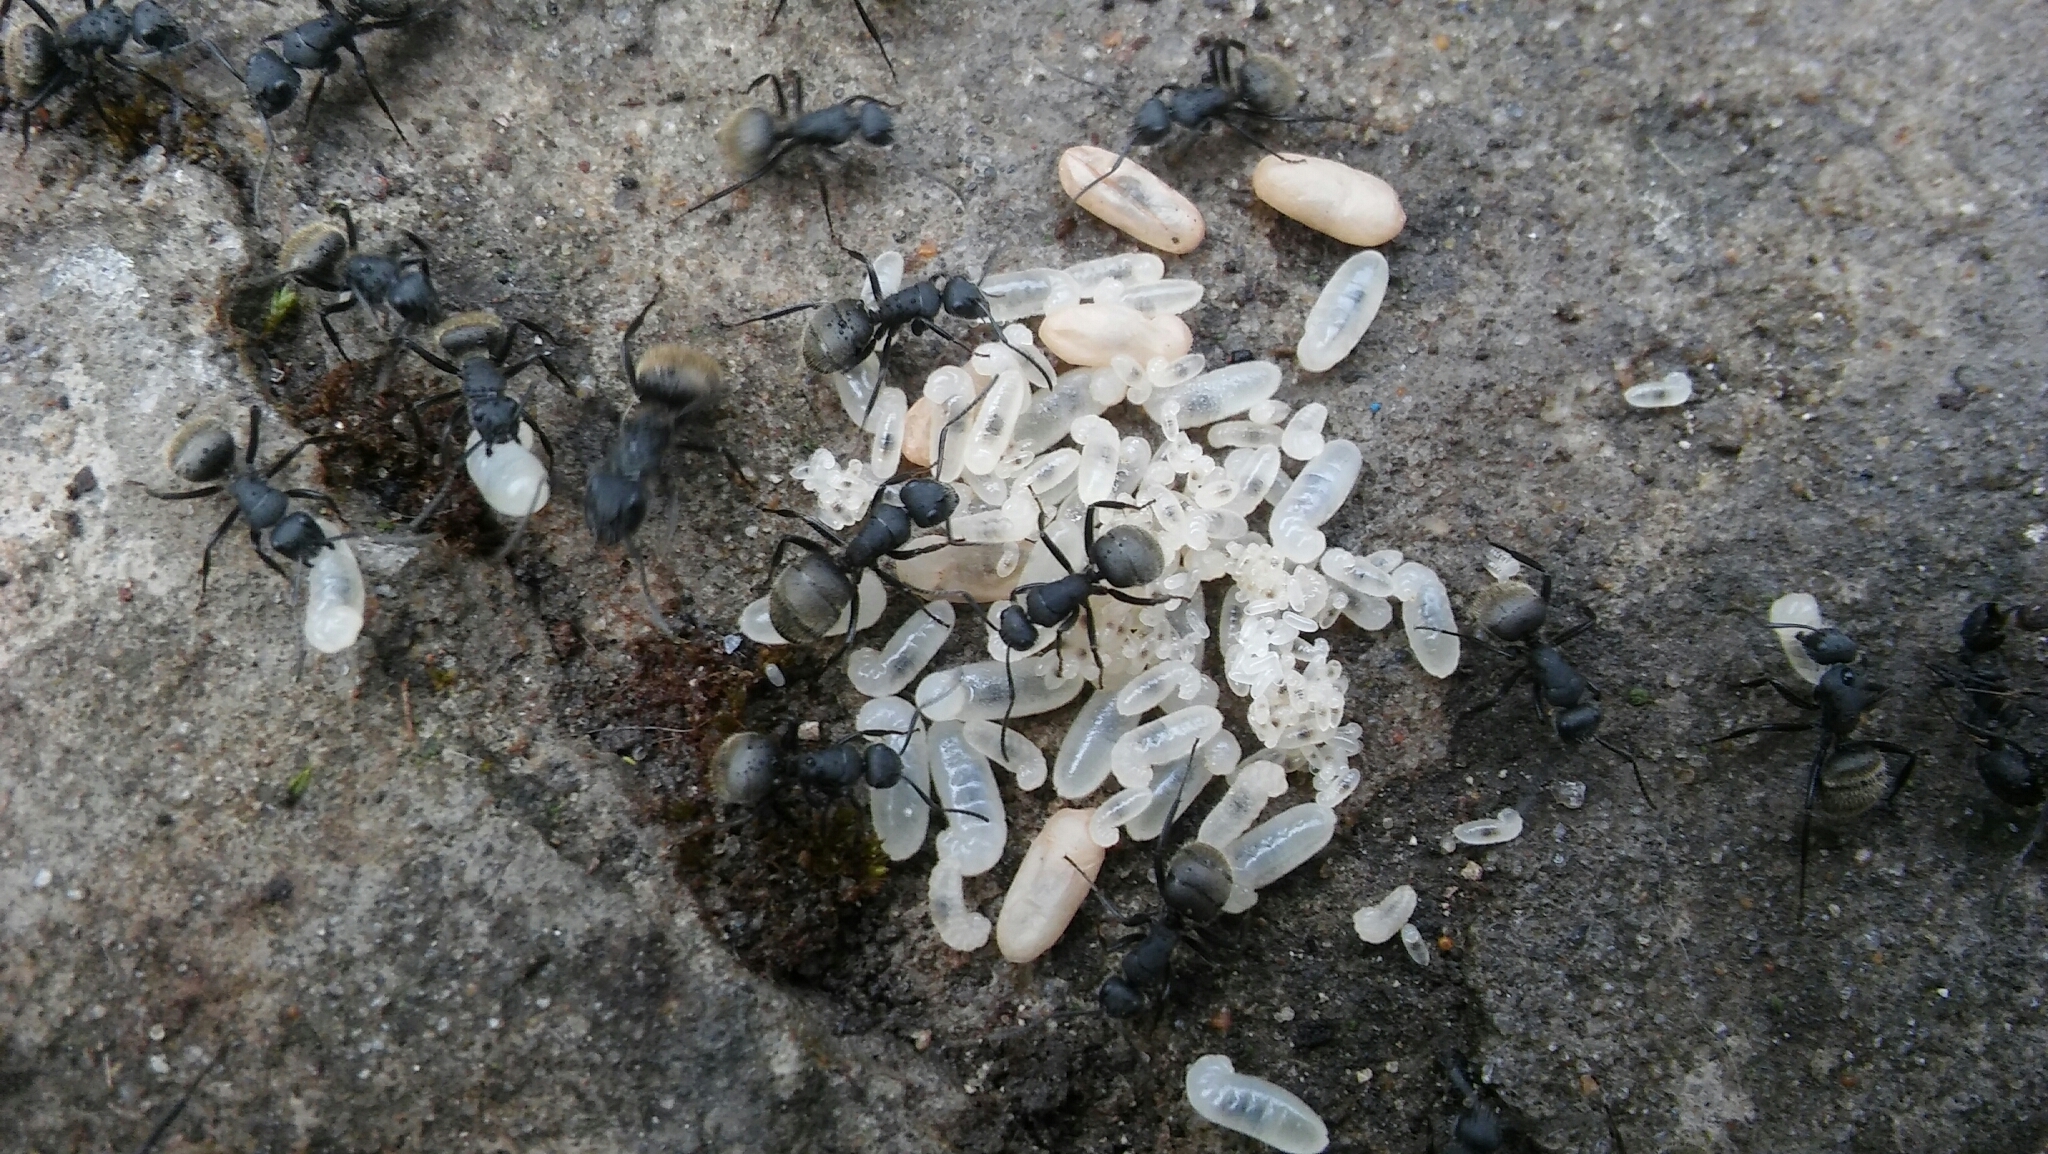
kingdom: Animalia
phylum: Arthropoda
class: Insecta
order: Hymenoptera
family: Formicidae
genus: Camponotus
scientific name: Camponotus mus
